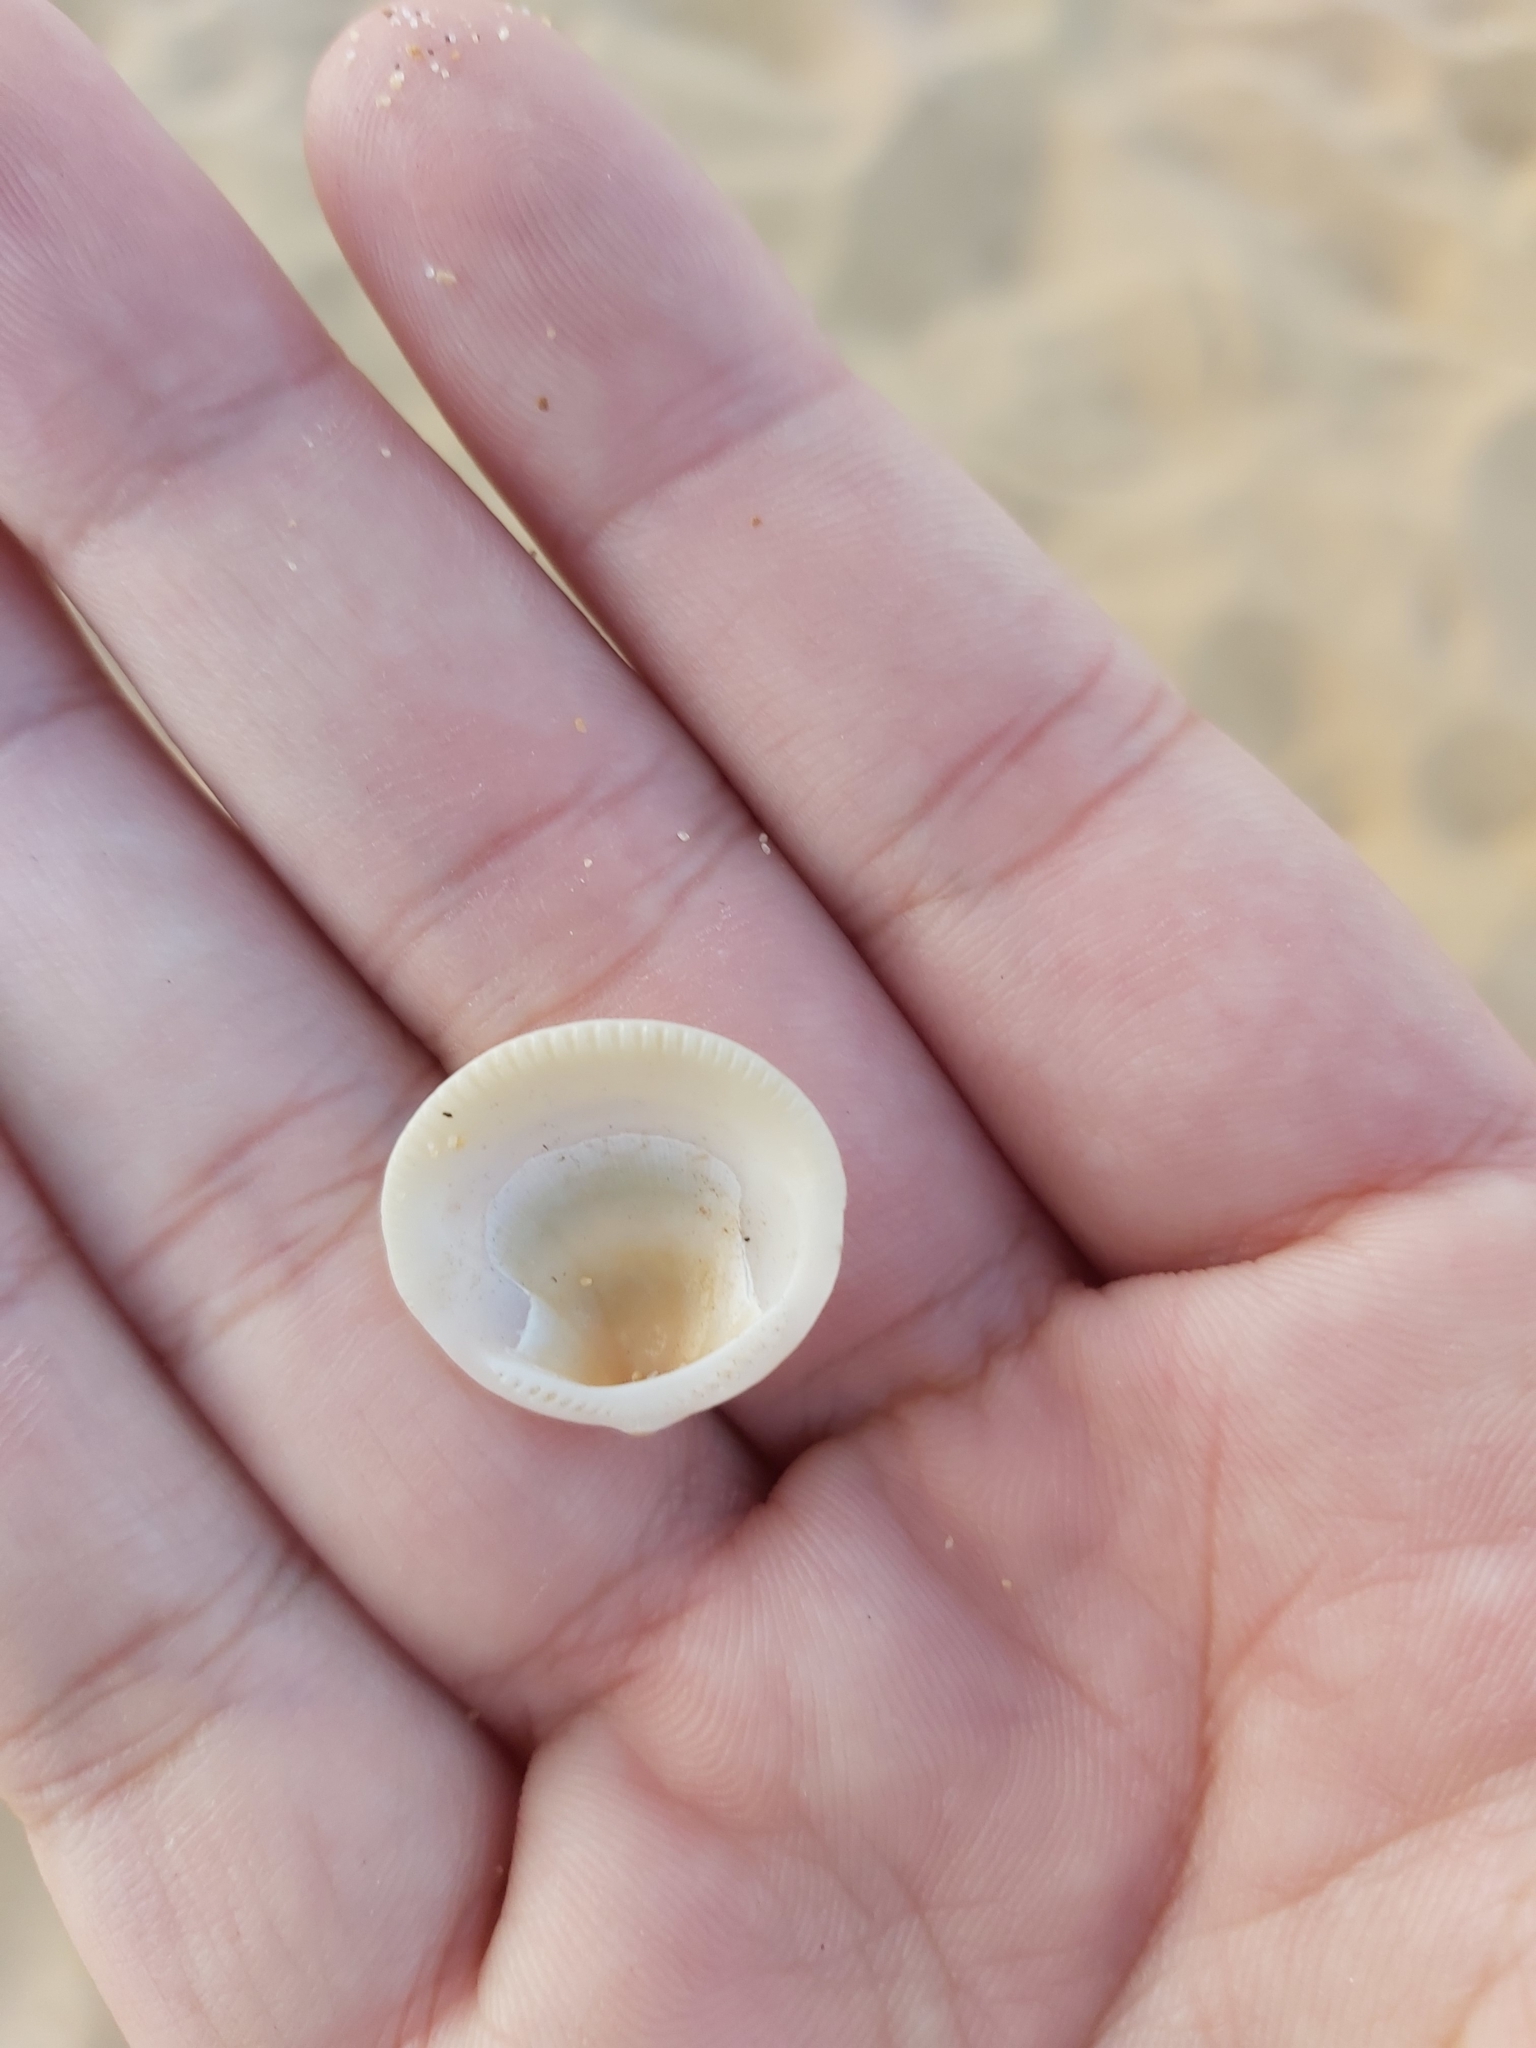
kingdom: Animalia
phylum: Mollusca
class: Bivalvia
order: Arcida
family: Glycymerididae
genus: Glycymeris
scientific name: Glycymeris grayana
